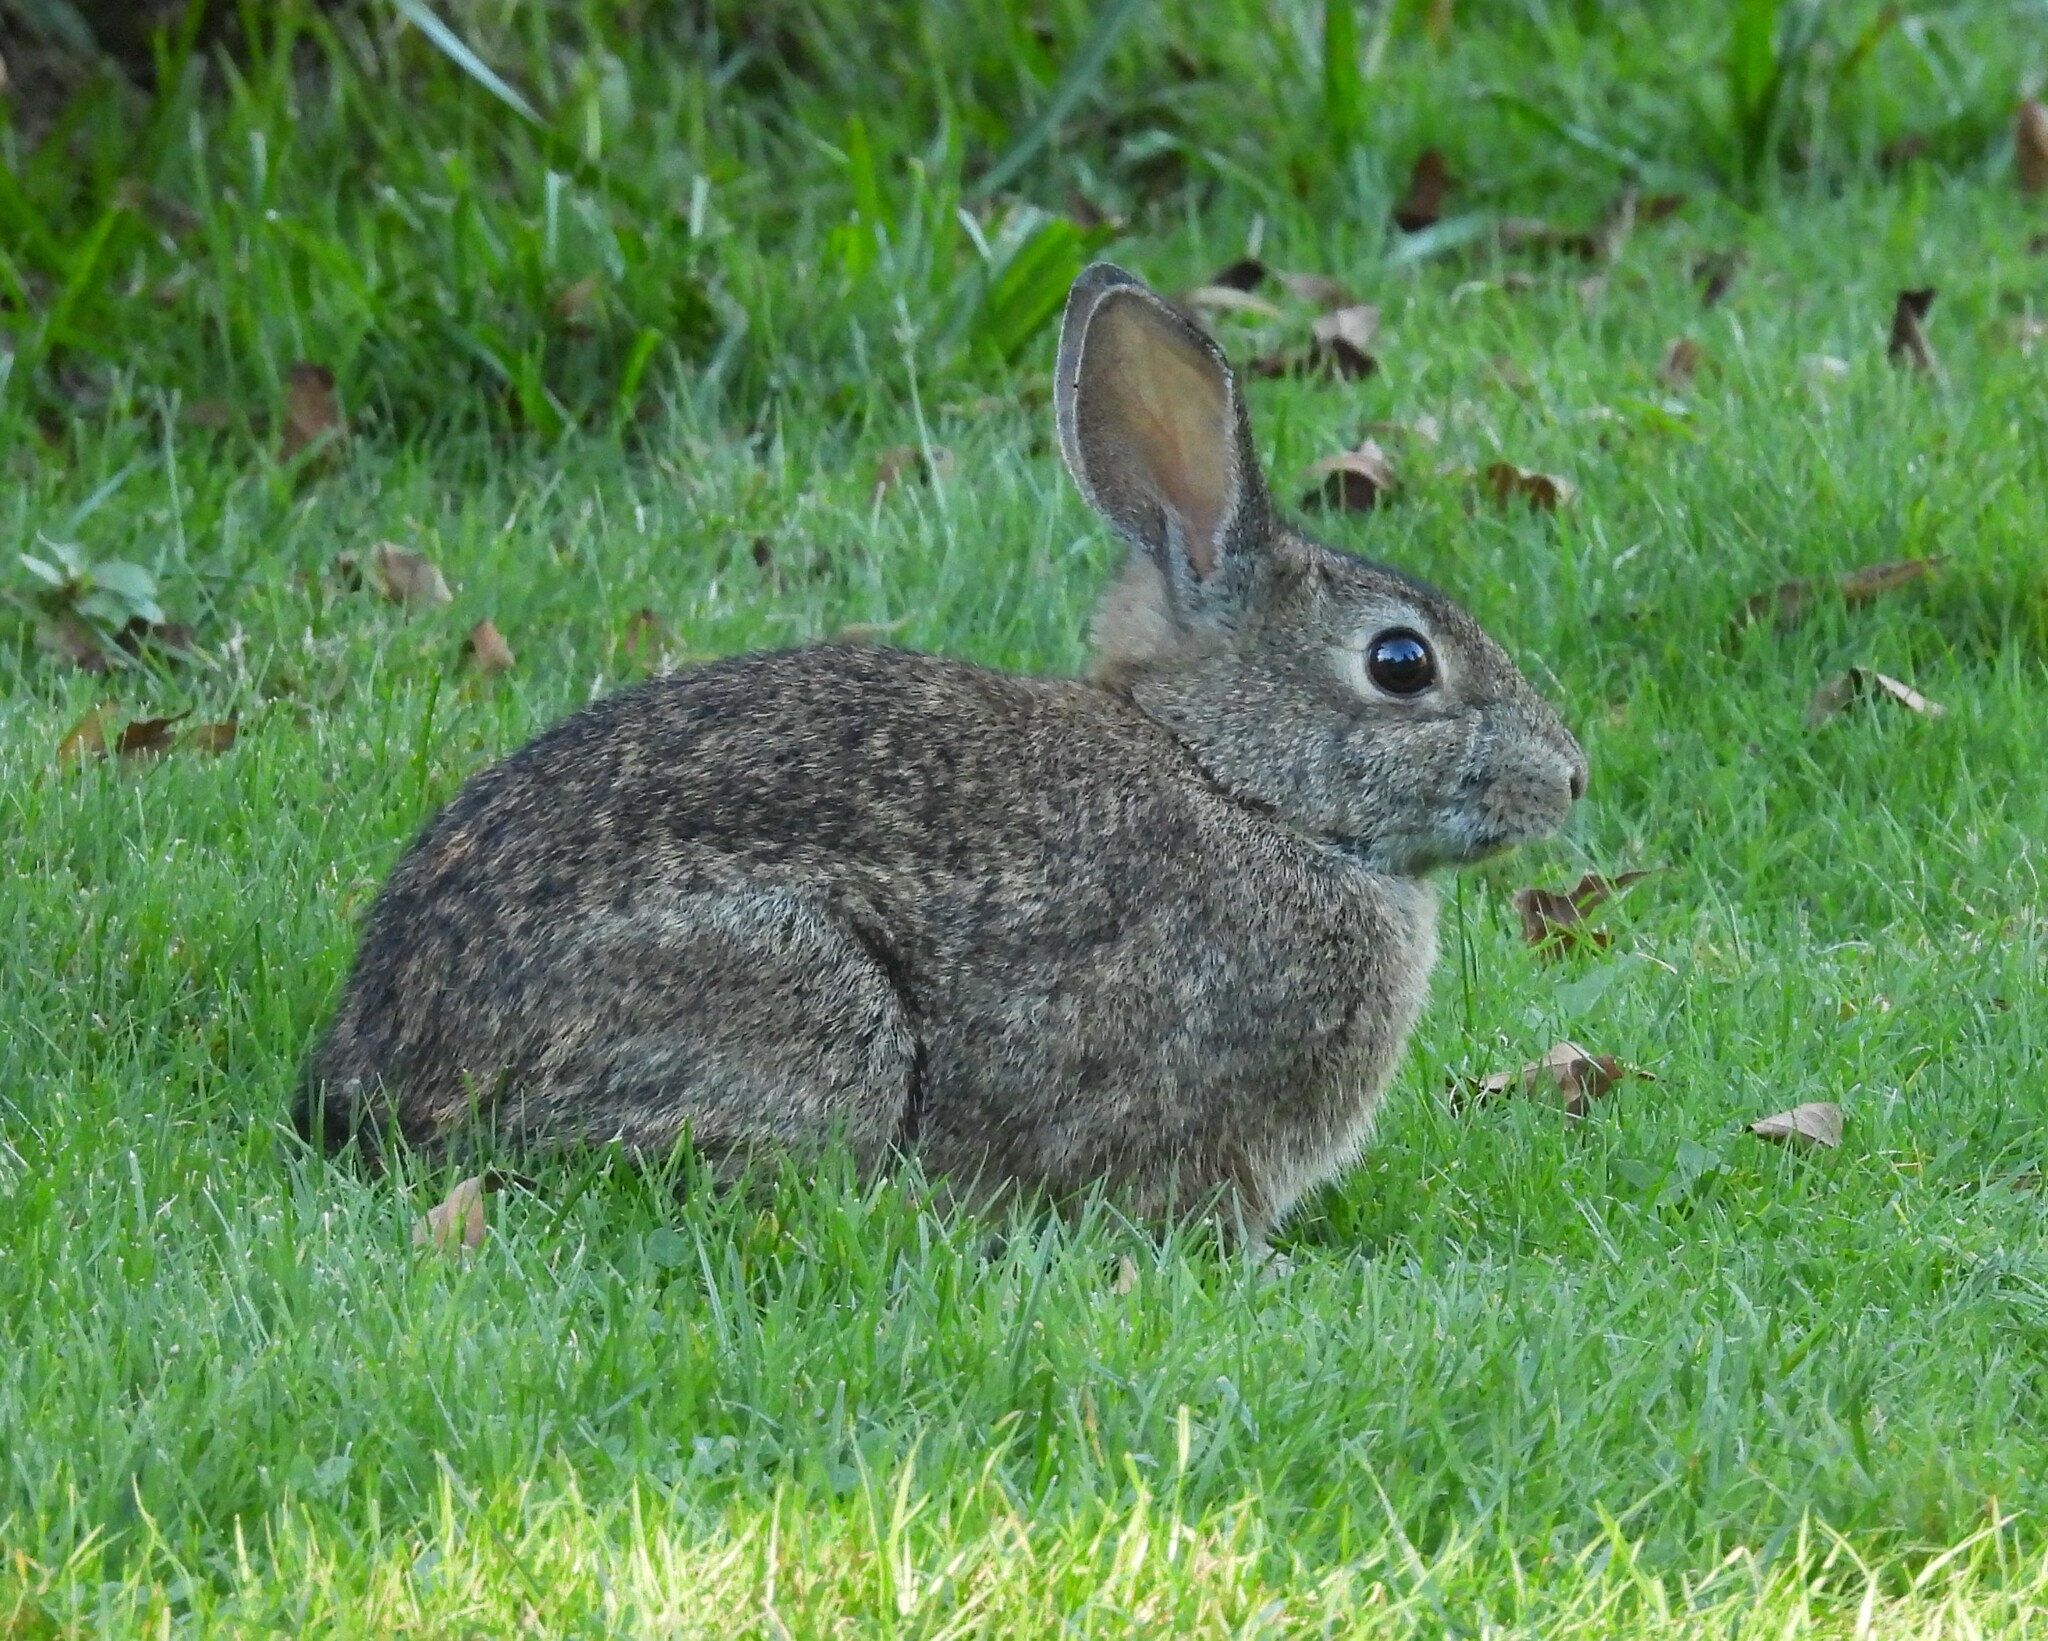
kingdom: Animalia
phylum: Chordata
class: Mammalia
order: Lagomorpha
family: Leporidae
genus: Sylvilagus
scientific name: Sylvilagus bachmani
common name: Brush rabbit
